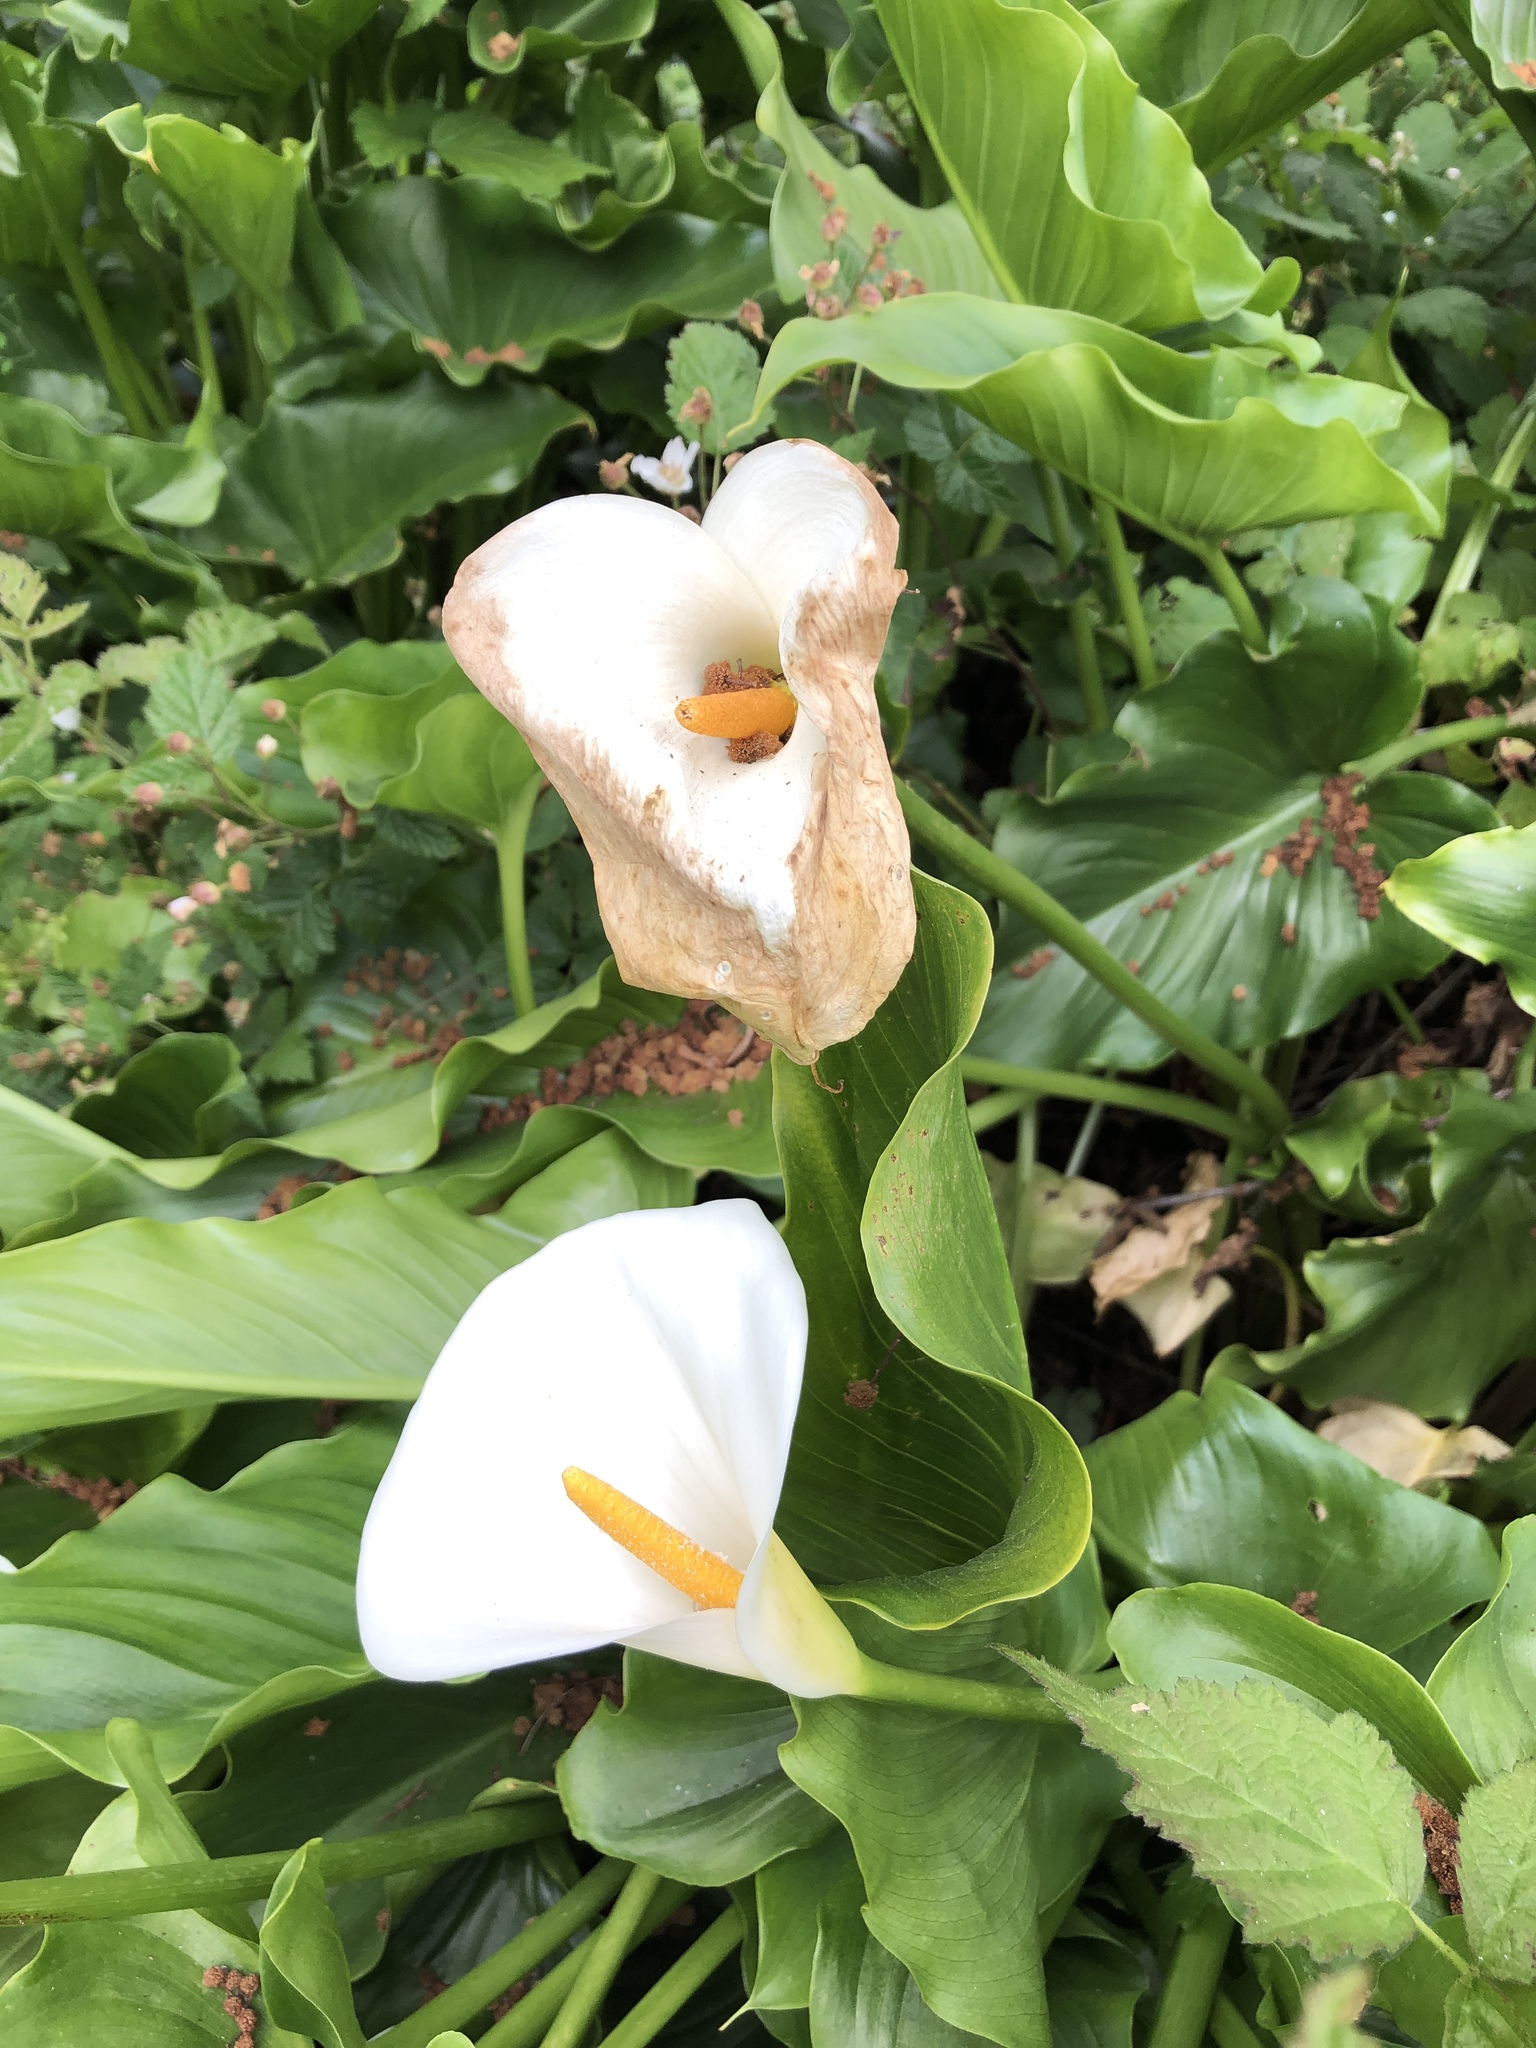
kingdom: Plantae
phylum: Tracheophyta
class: Liliopsida
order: Alismatales
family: Araceae
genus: Zantedeschia
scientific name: Zantedeschia aethiopica
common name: Altar-lily
